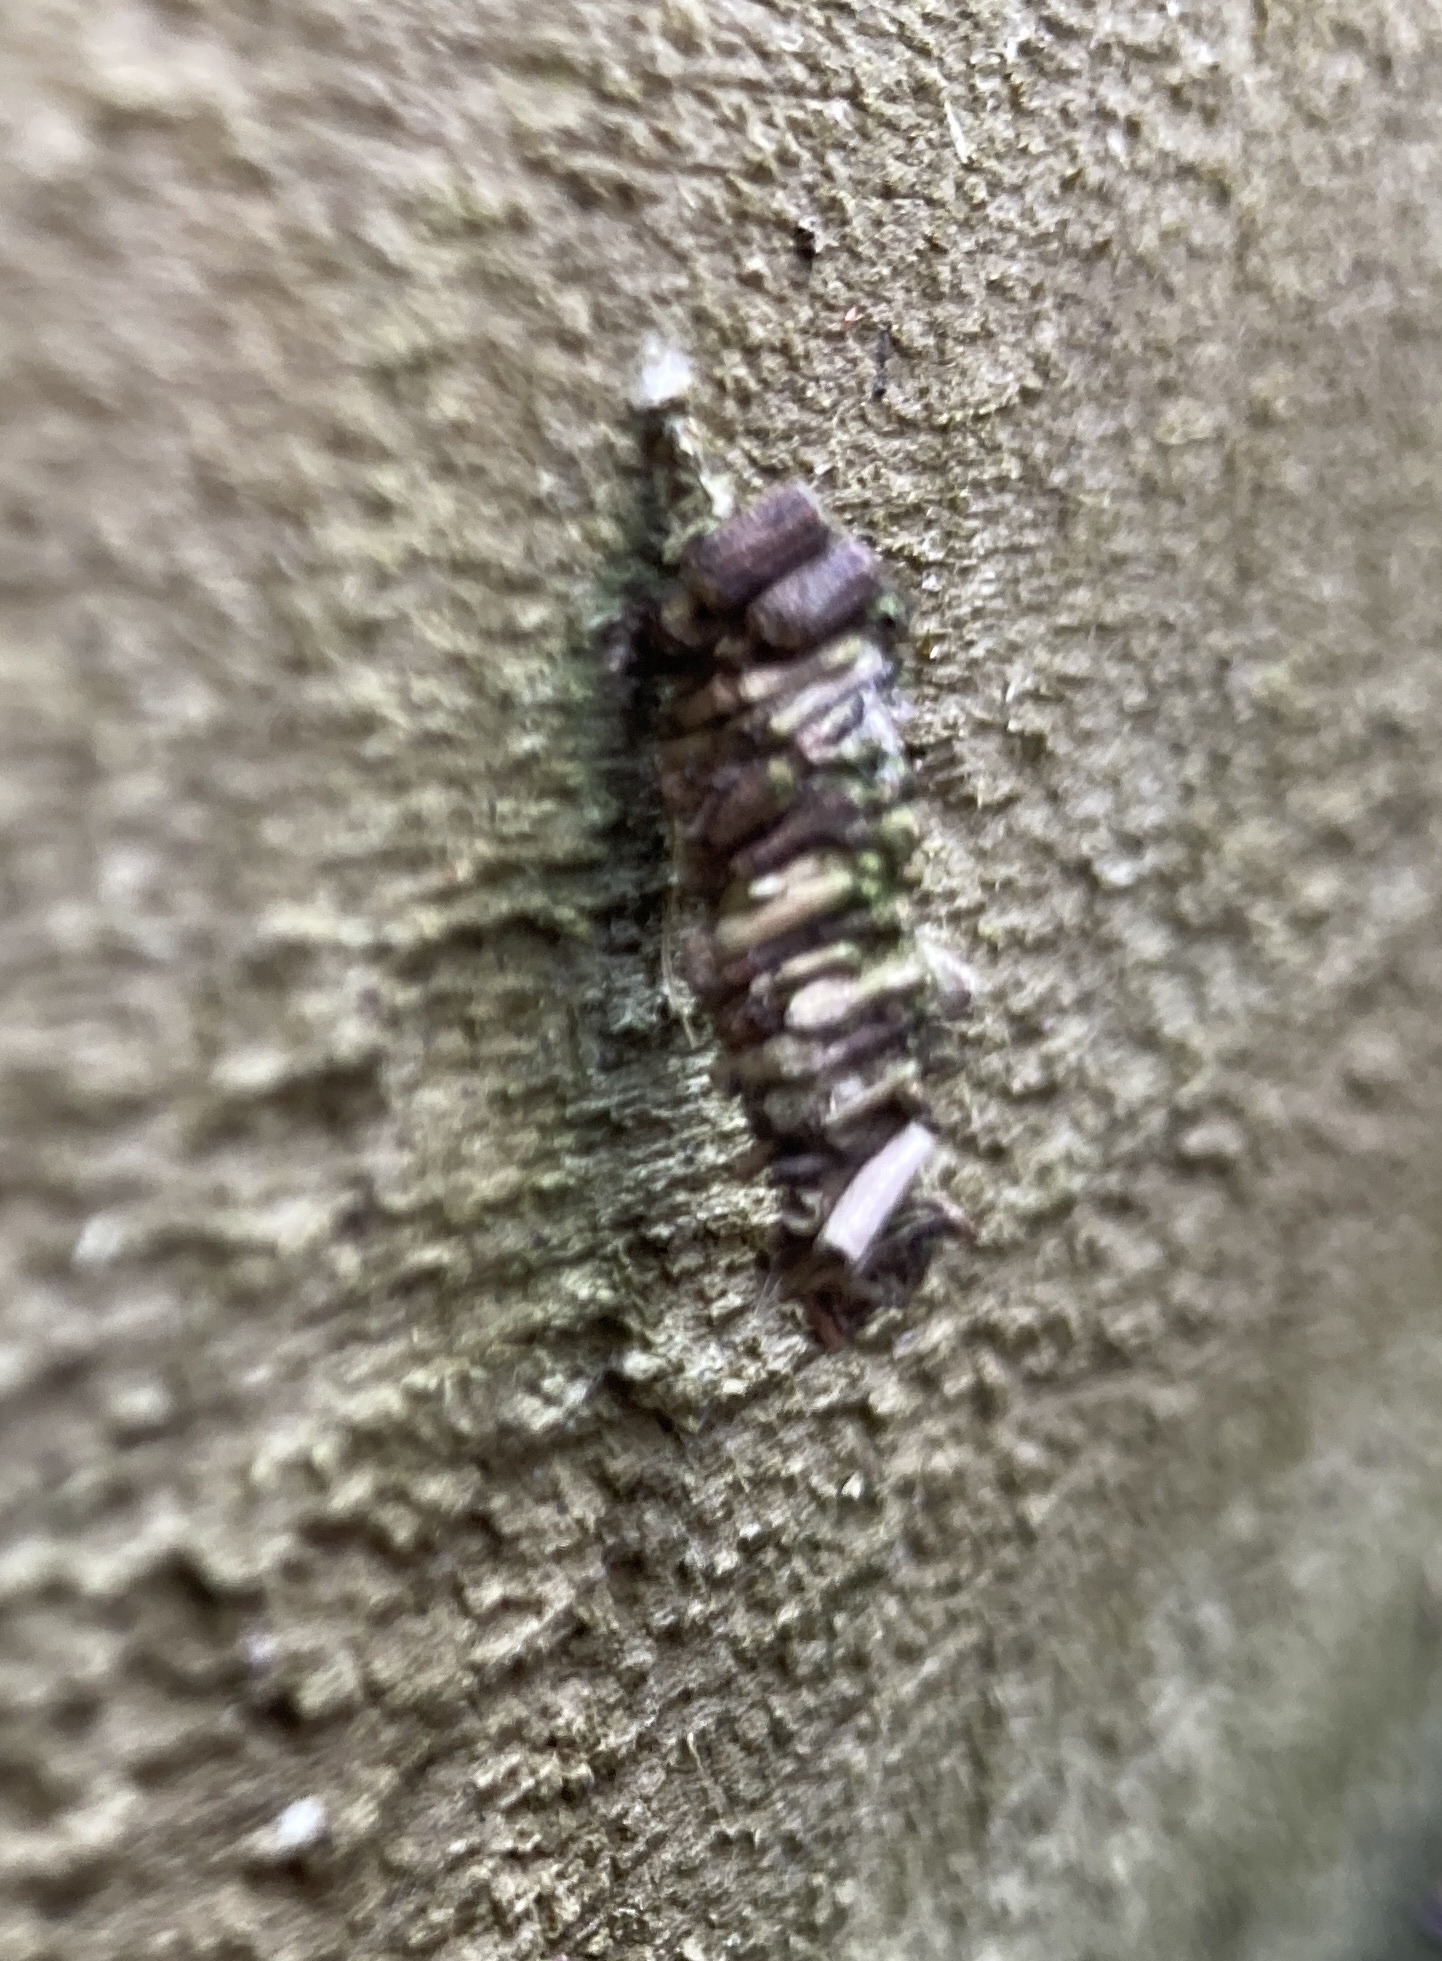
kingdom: Animalia
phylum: Arthropoda
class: Insecta
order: Lepidoptera
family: Psychidae
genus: Lepidoscia
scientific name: Lepidoscia protorna
